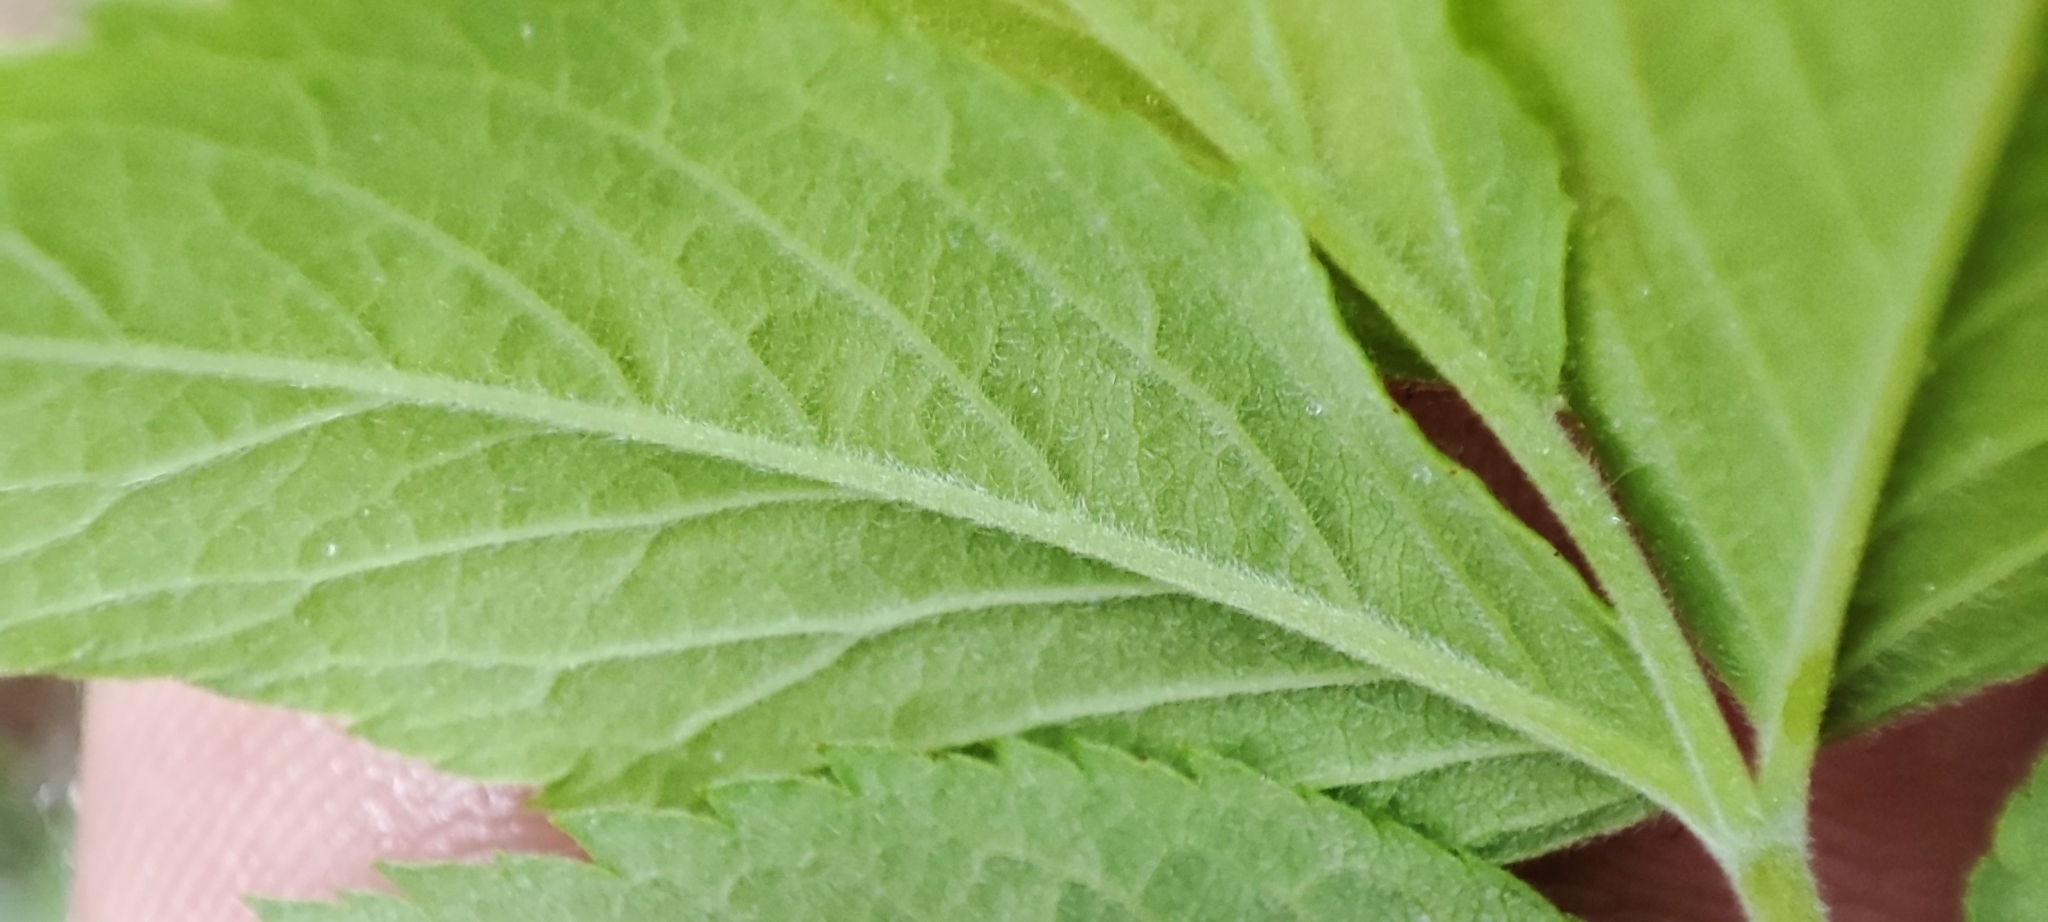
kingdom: Plantae
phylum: Tracheophyta
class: Magnoliopsida
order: Rosales
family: Rosaceae
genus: Rosa
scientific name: Rosa majalis
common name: Cinnamon rose
